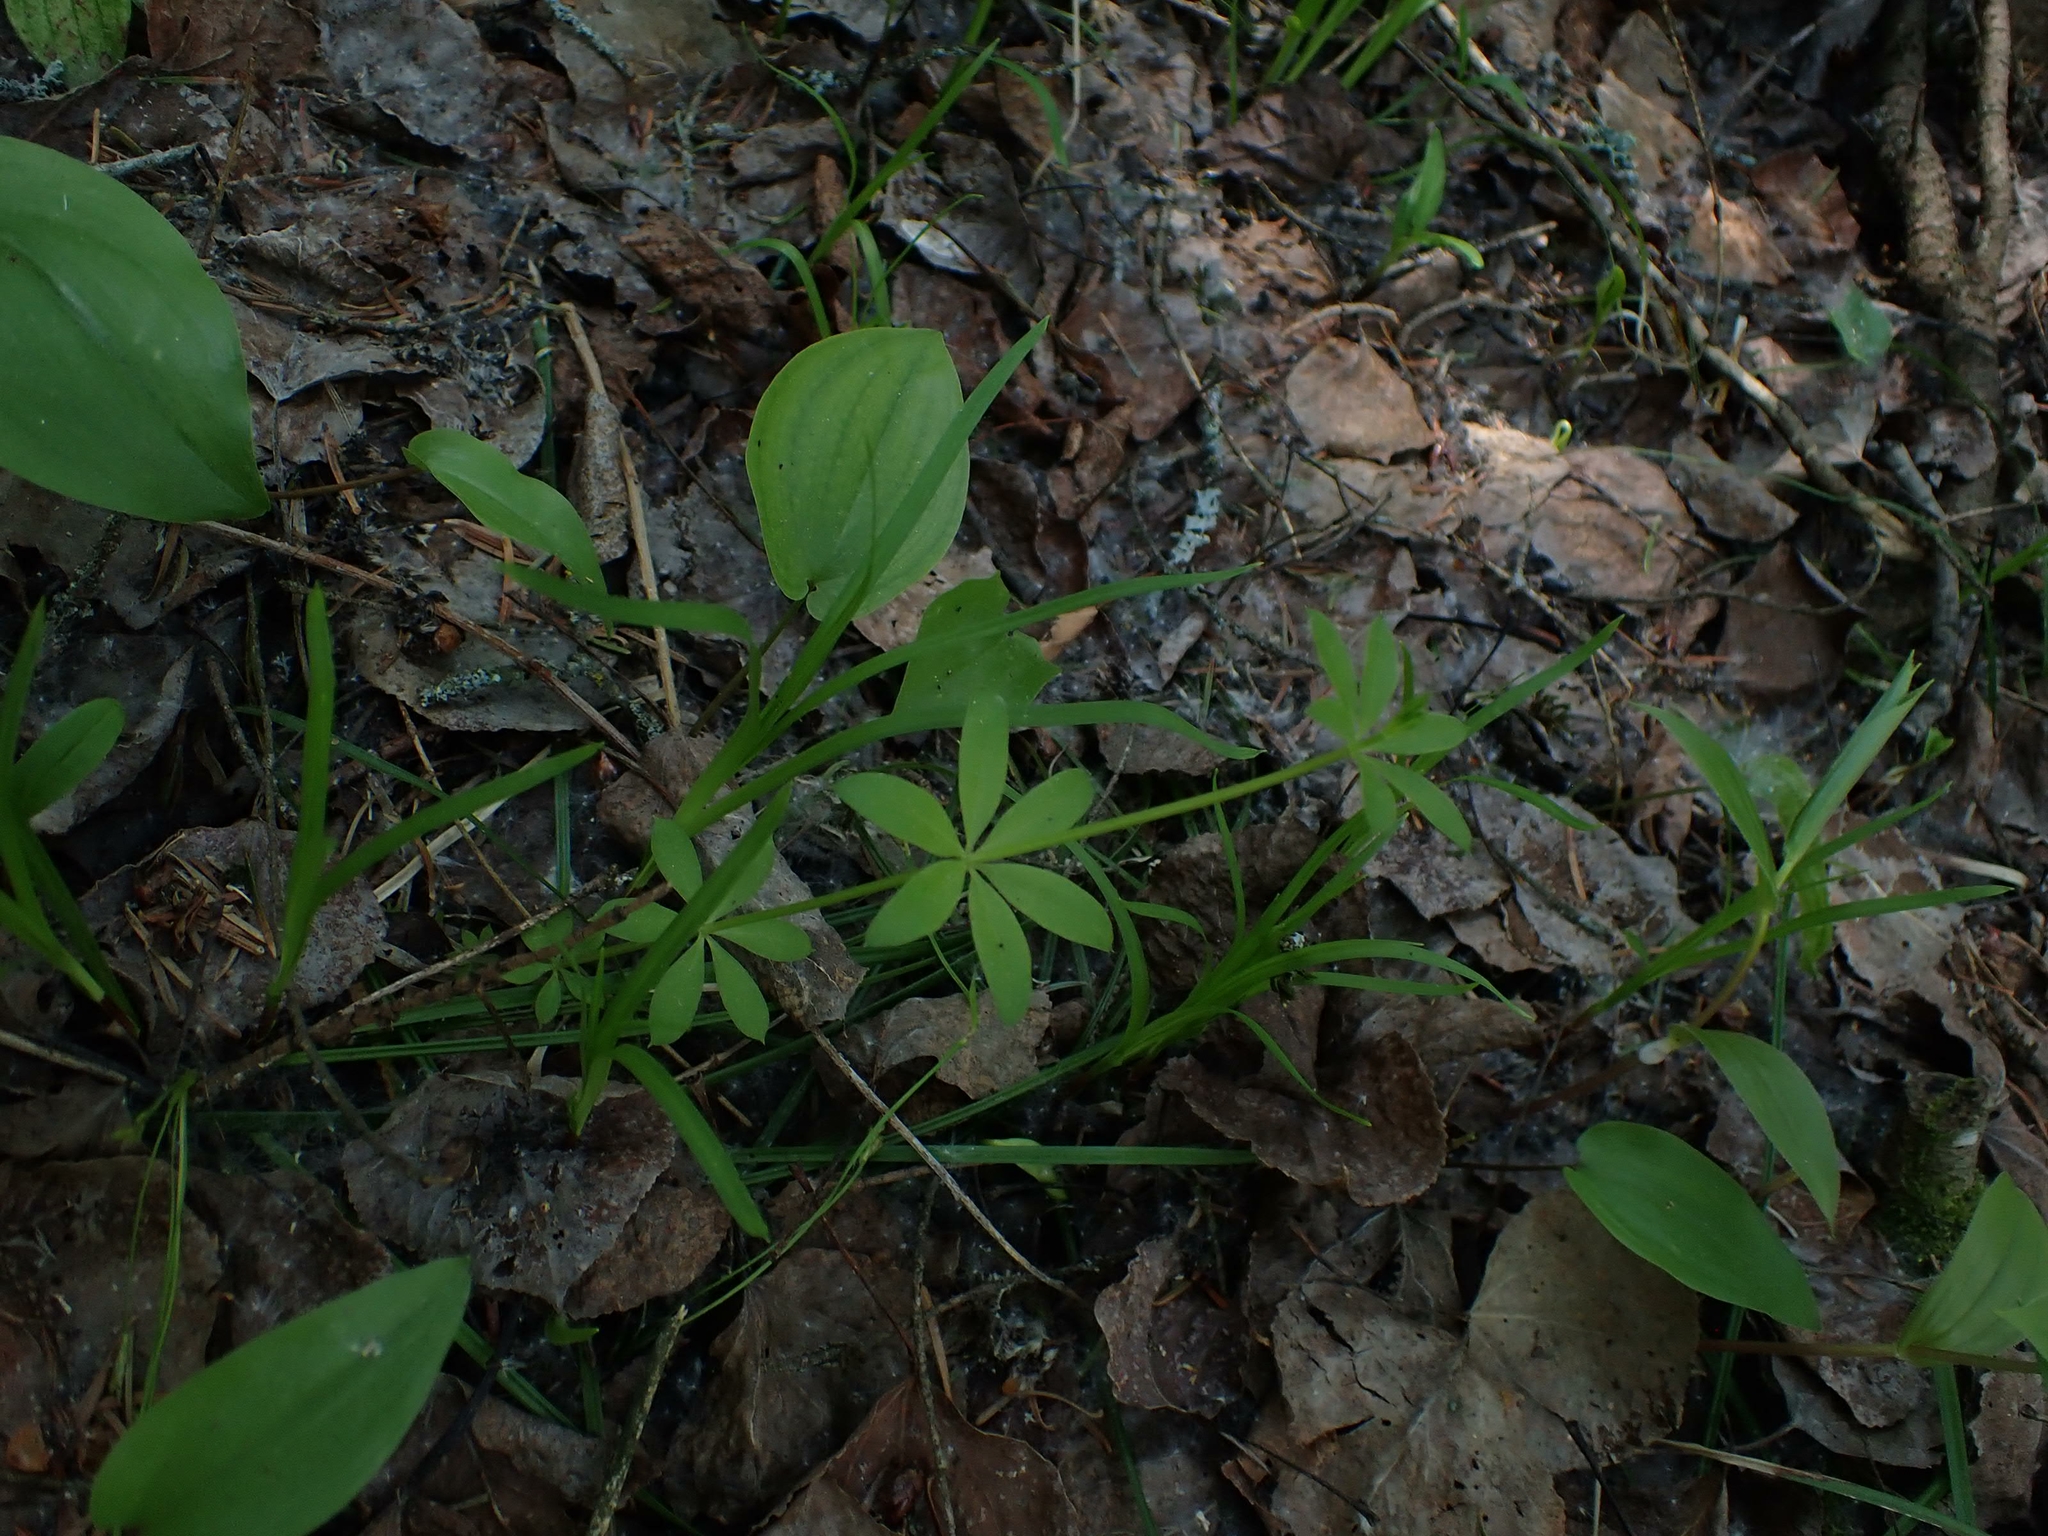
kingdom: Plantae
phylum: Tracheophyta
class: Magnoliopsida
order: Gentianales
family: Rubiaceae
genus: Galium
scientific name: Galium triflorum
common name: Fragrant bedstraw
